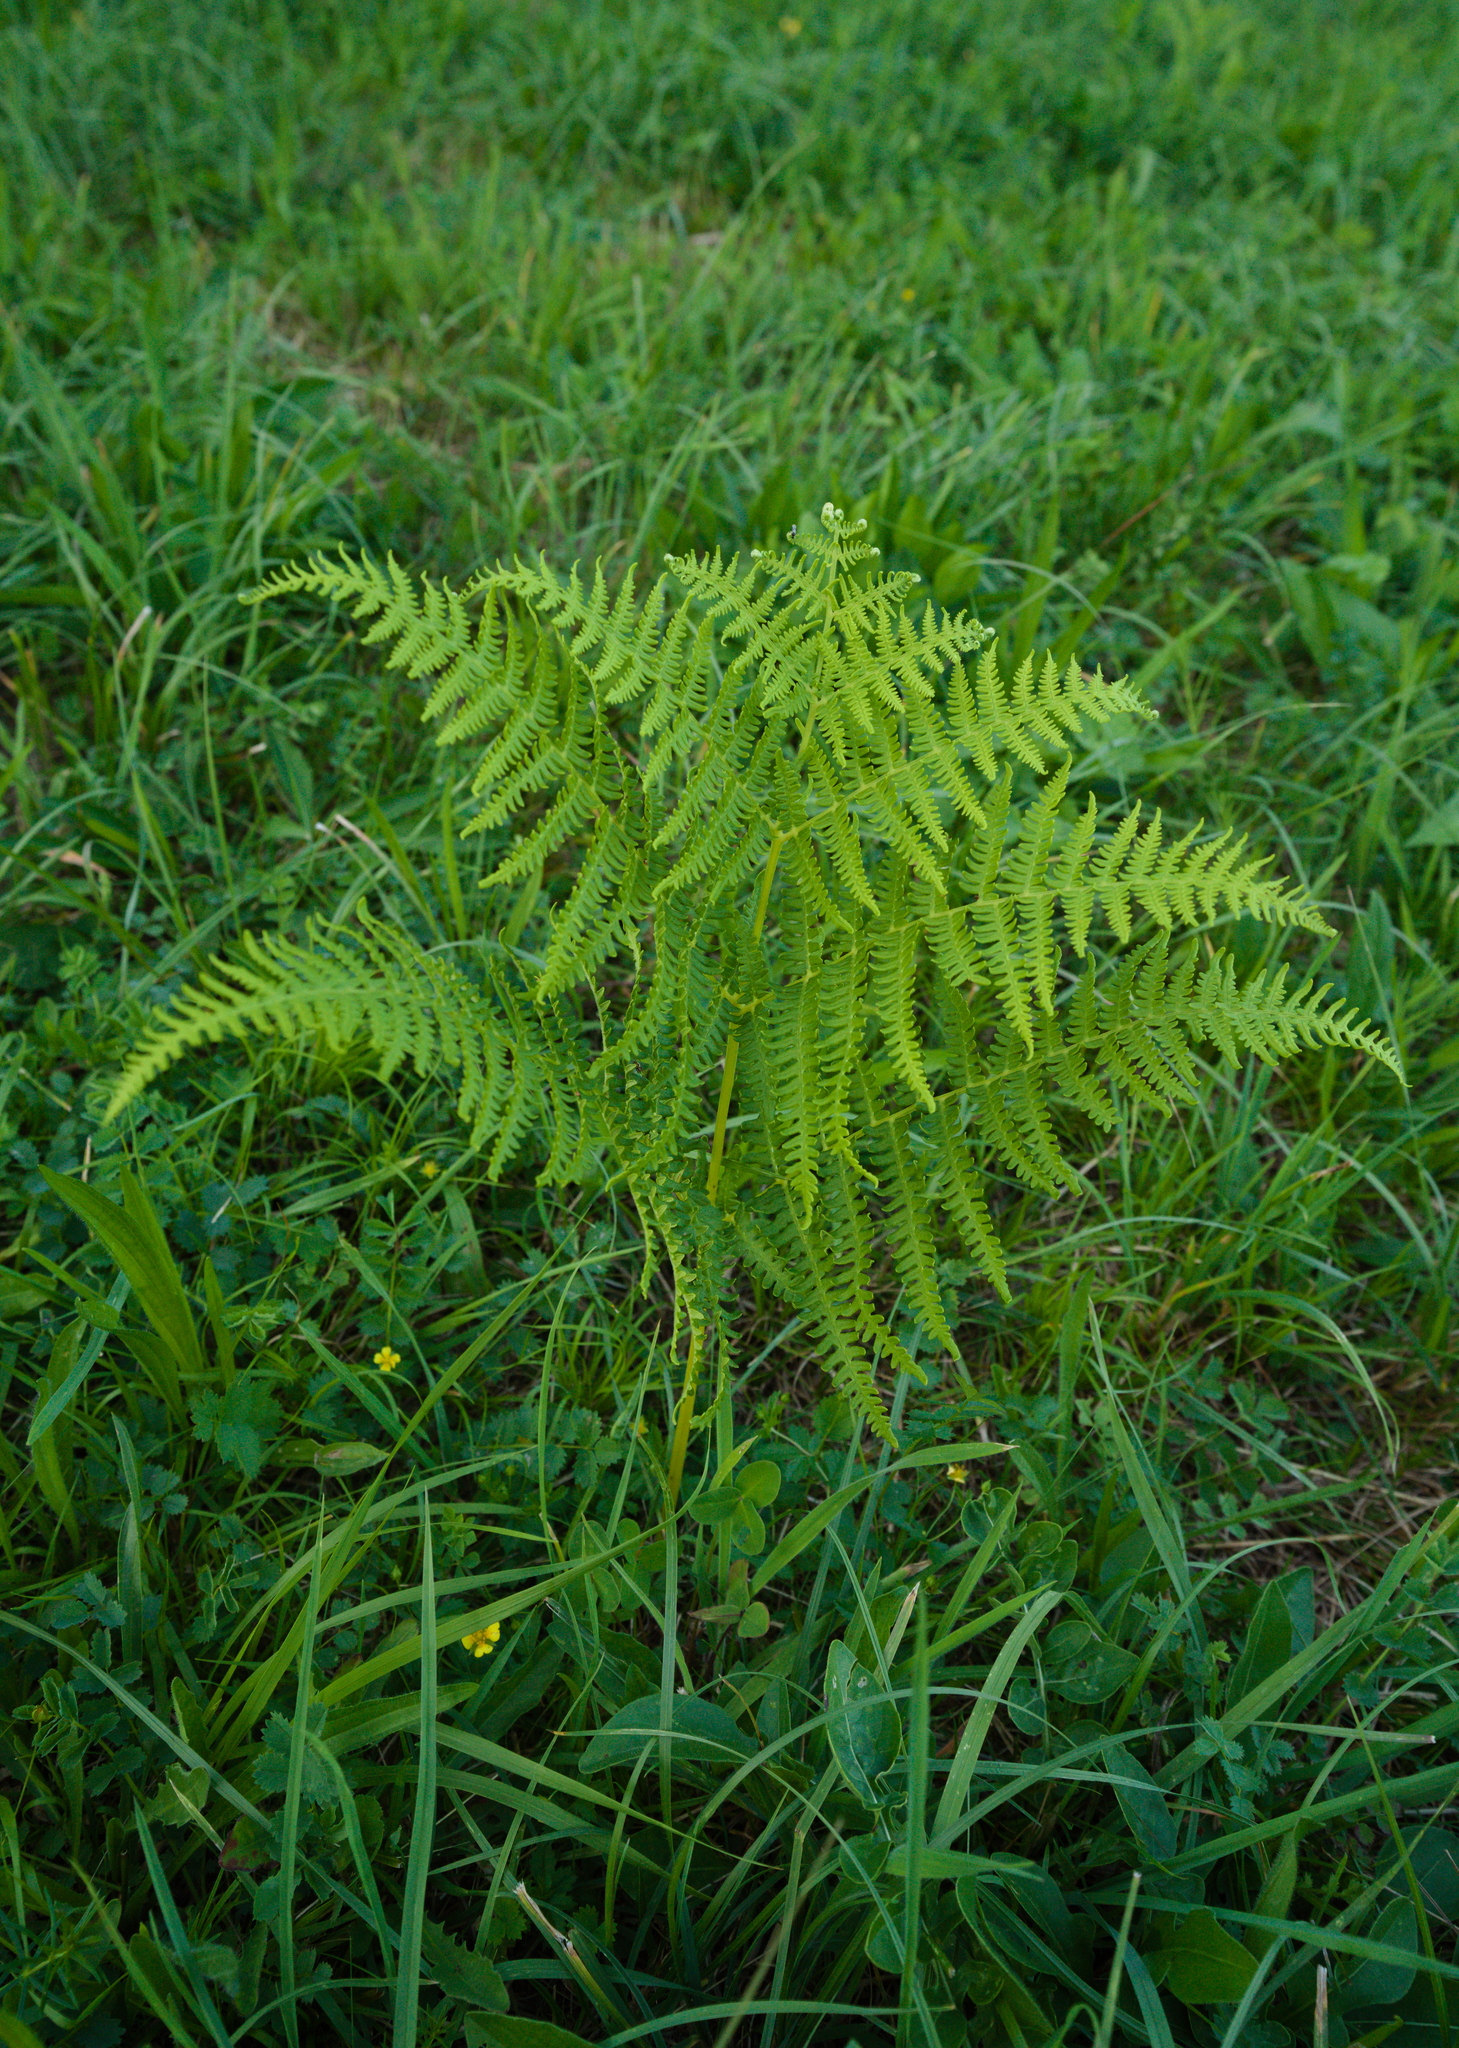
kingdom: Plantae
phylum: Tracheophyta
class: Polypodiopsida
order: Polypodiales
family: Dennstaedtiaceae
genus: Pteridium
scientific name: Pteridium aquilinum
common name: Bracken
